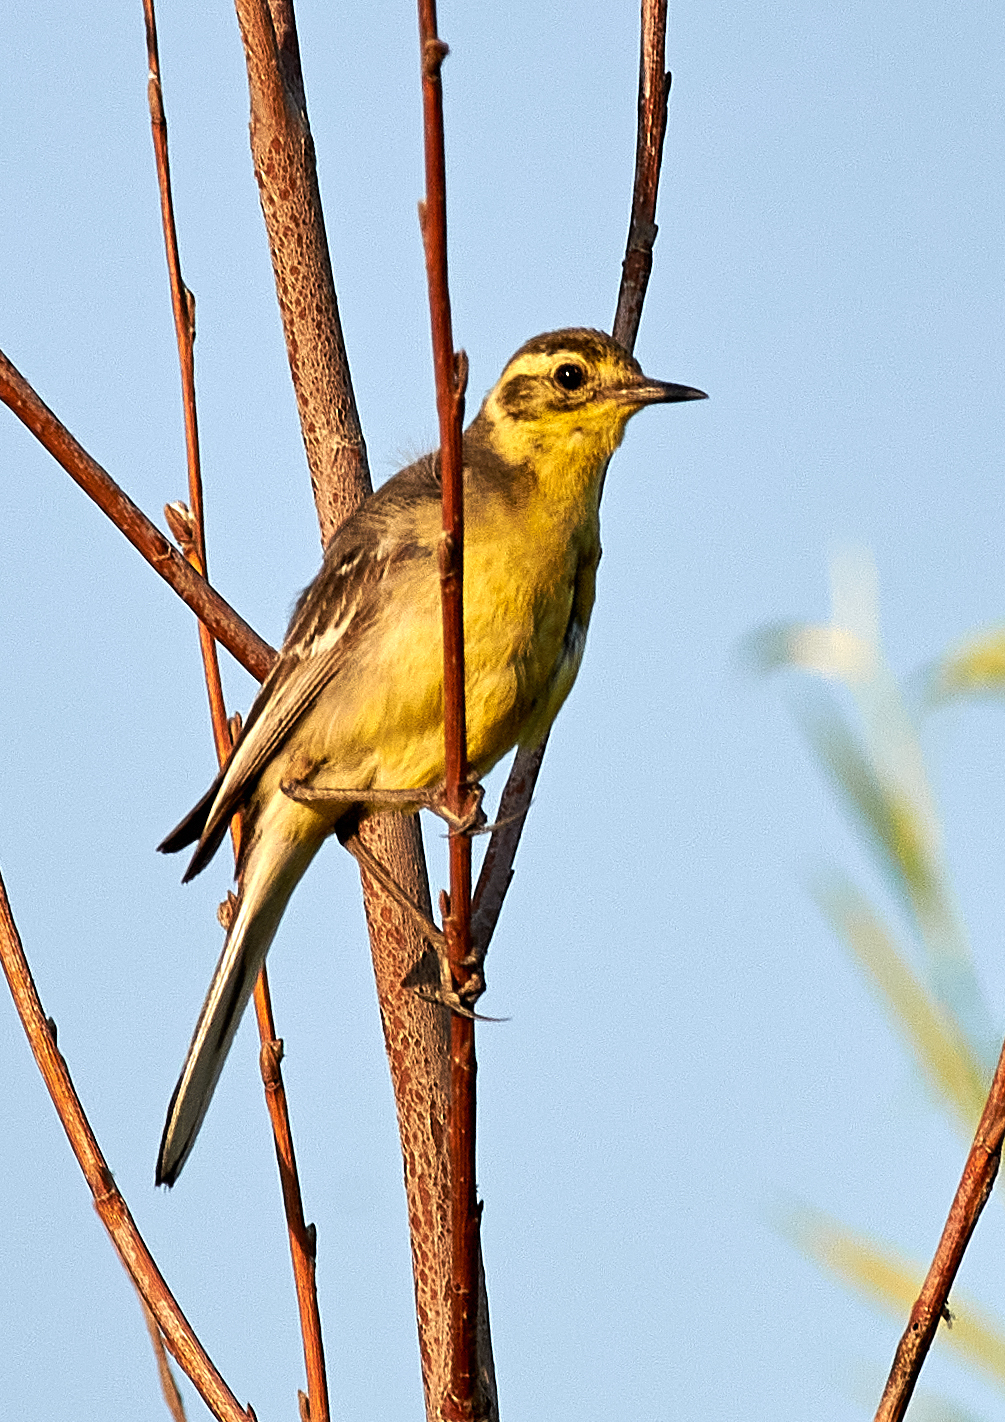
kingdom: Animalia
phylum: Chordata
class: Aves
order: Passeriformes
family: Motacillidae
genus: Motacilla
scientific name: Motacilla citreola
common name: Citrine wagtail
